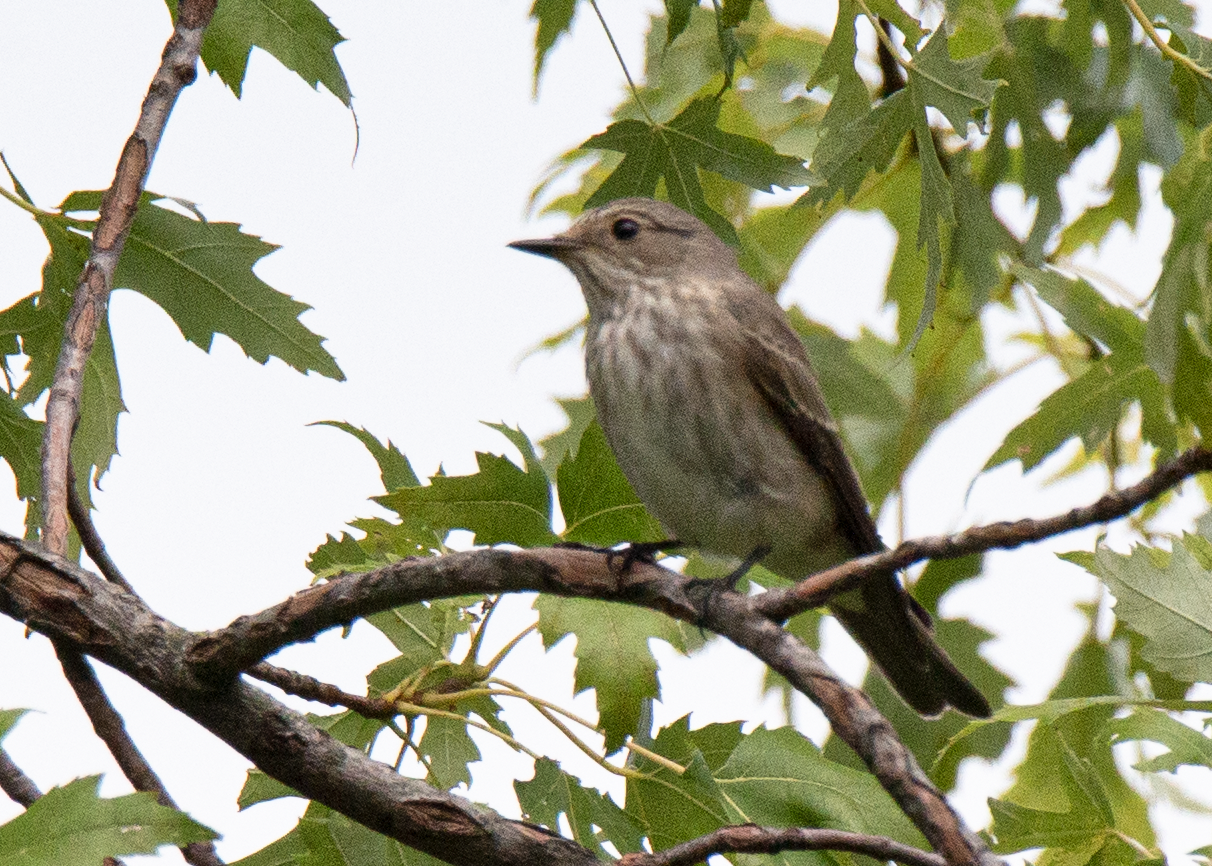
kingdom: Animalia
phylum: Chordata
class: Aves
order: Passeriformes
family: Muscicapidae
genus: Muscicapa
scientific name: Muscicapa striata
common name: Spotted flycatcher
